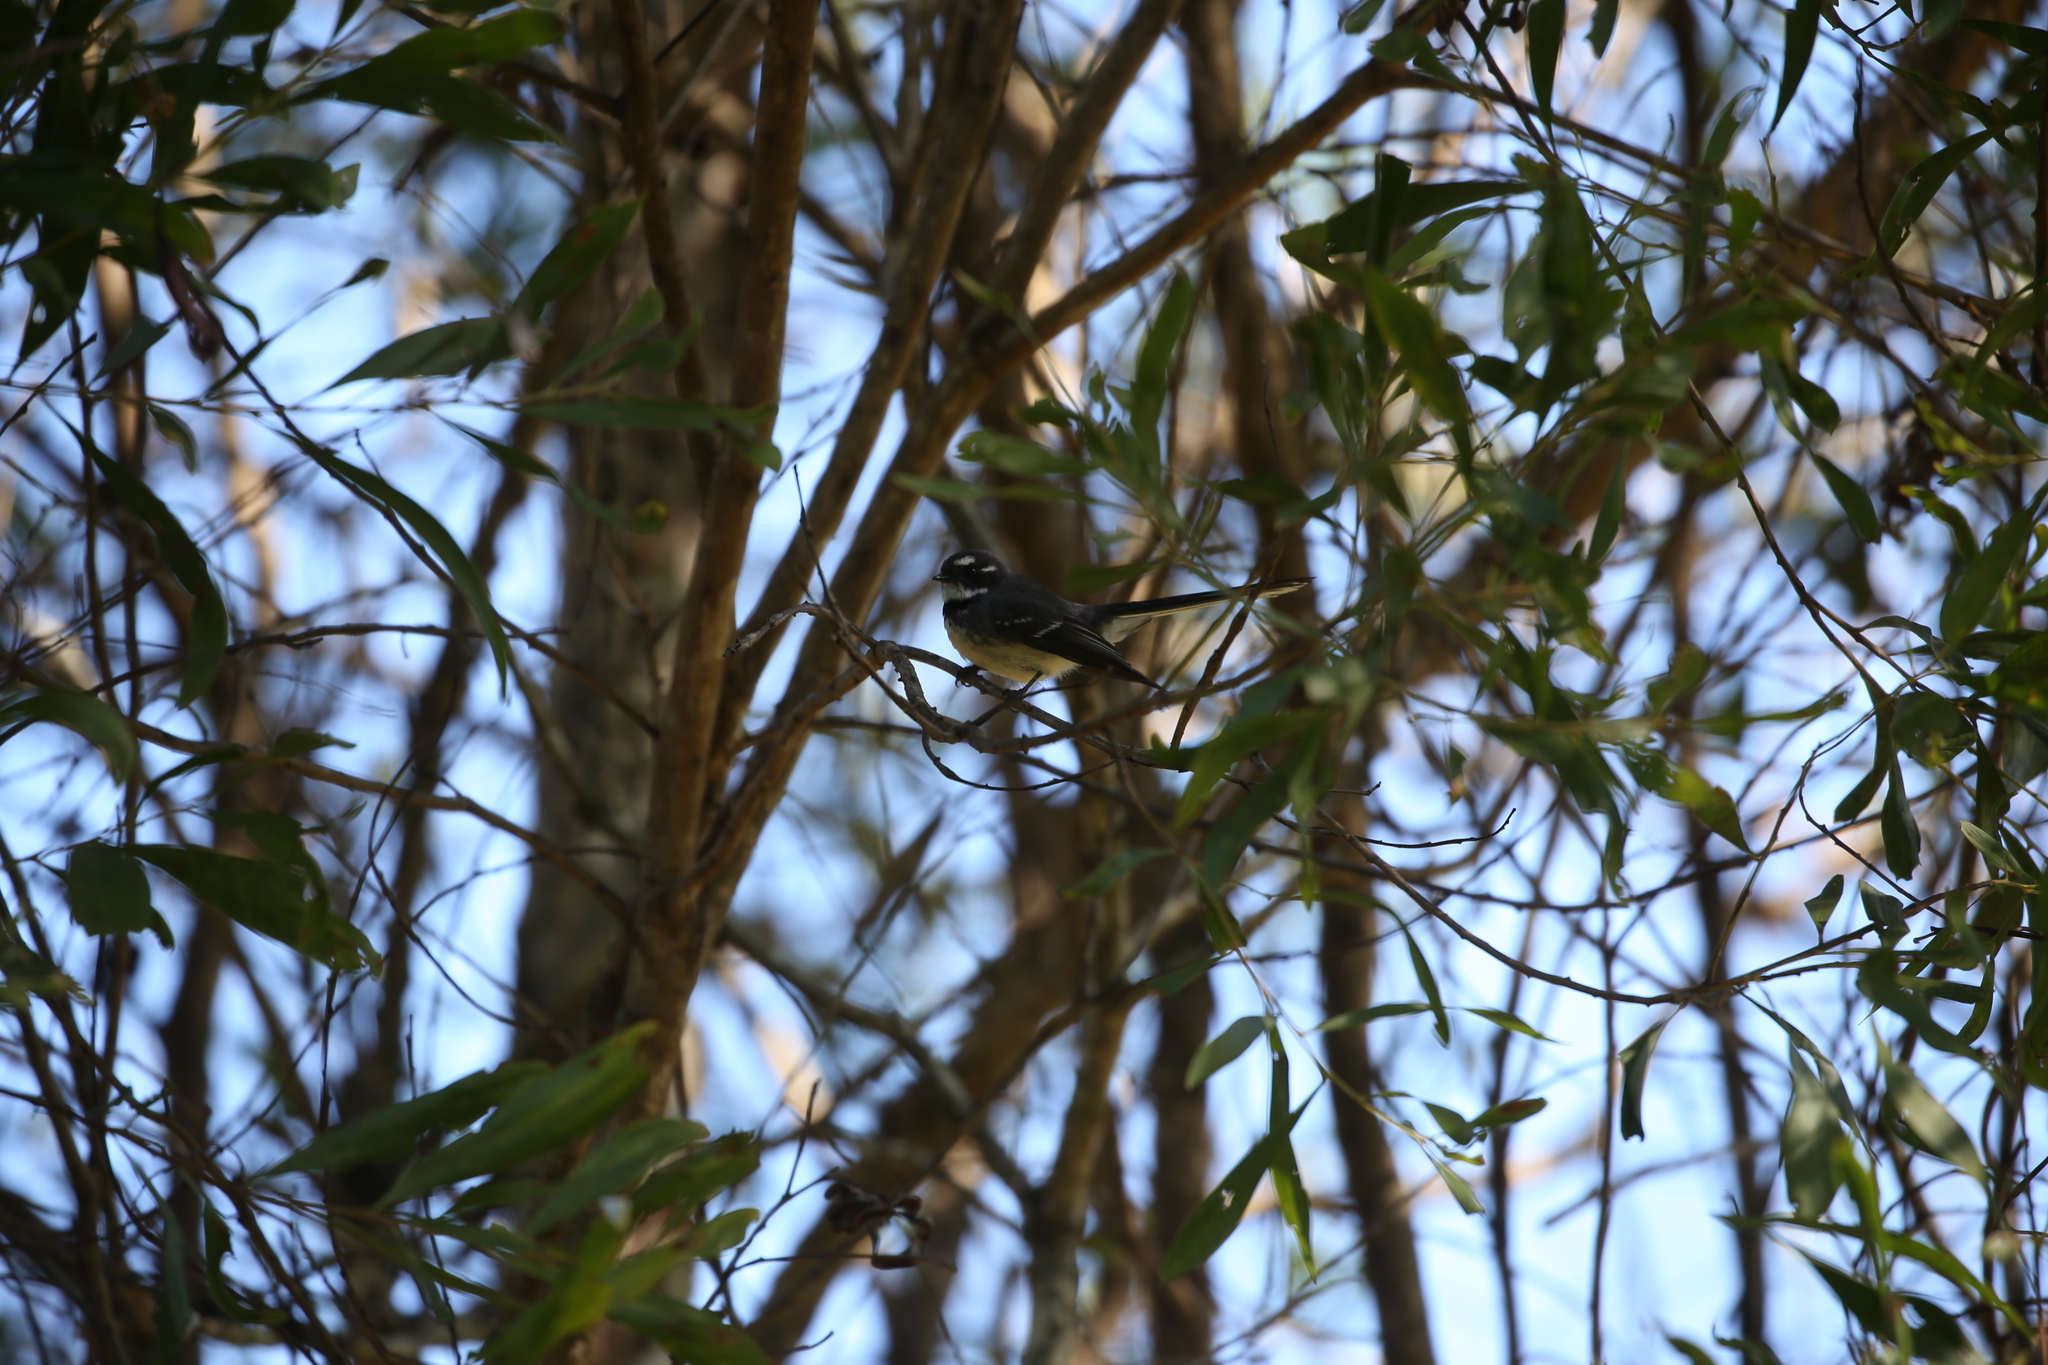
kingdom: Animalia
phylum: Chordata
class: Aves
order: Passeriformes
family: Rhipiduridae
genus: Rhipidura
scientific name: Rhipidura albiscapa
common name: Grey fantail
